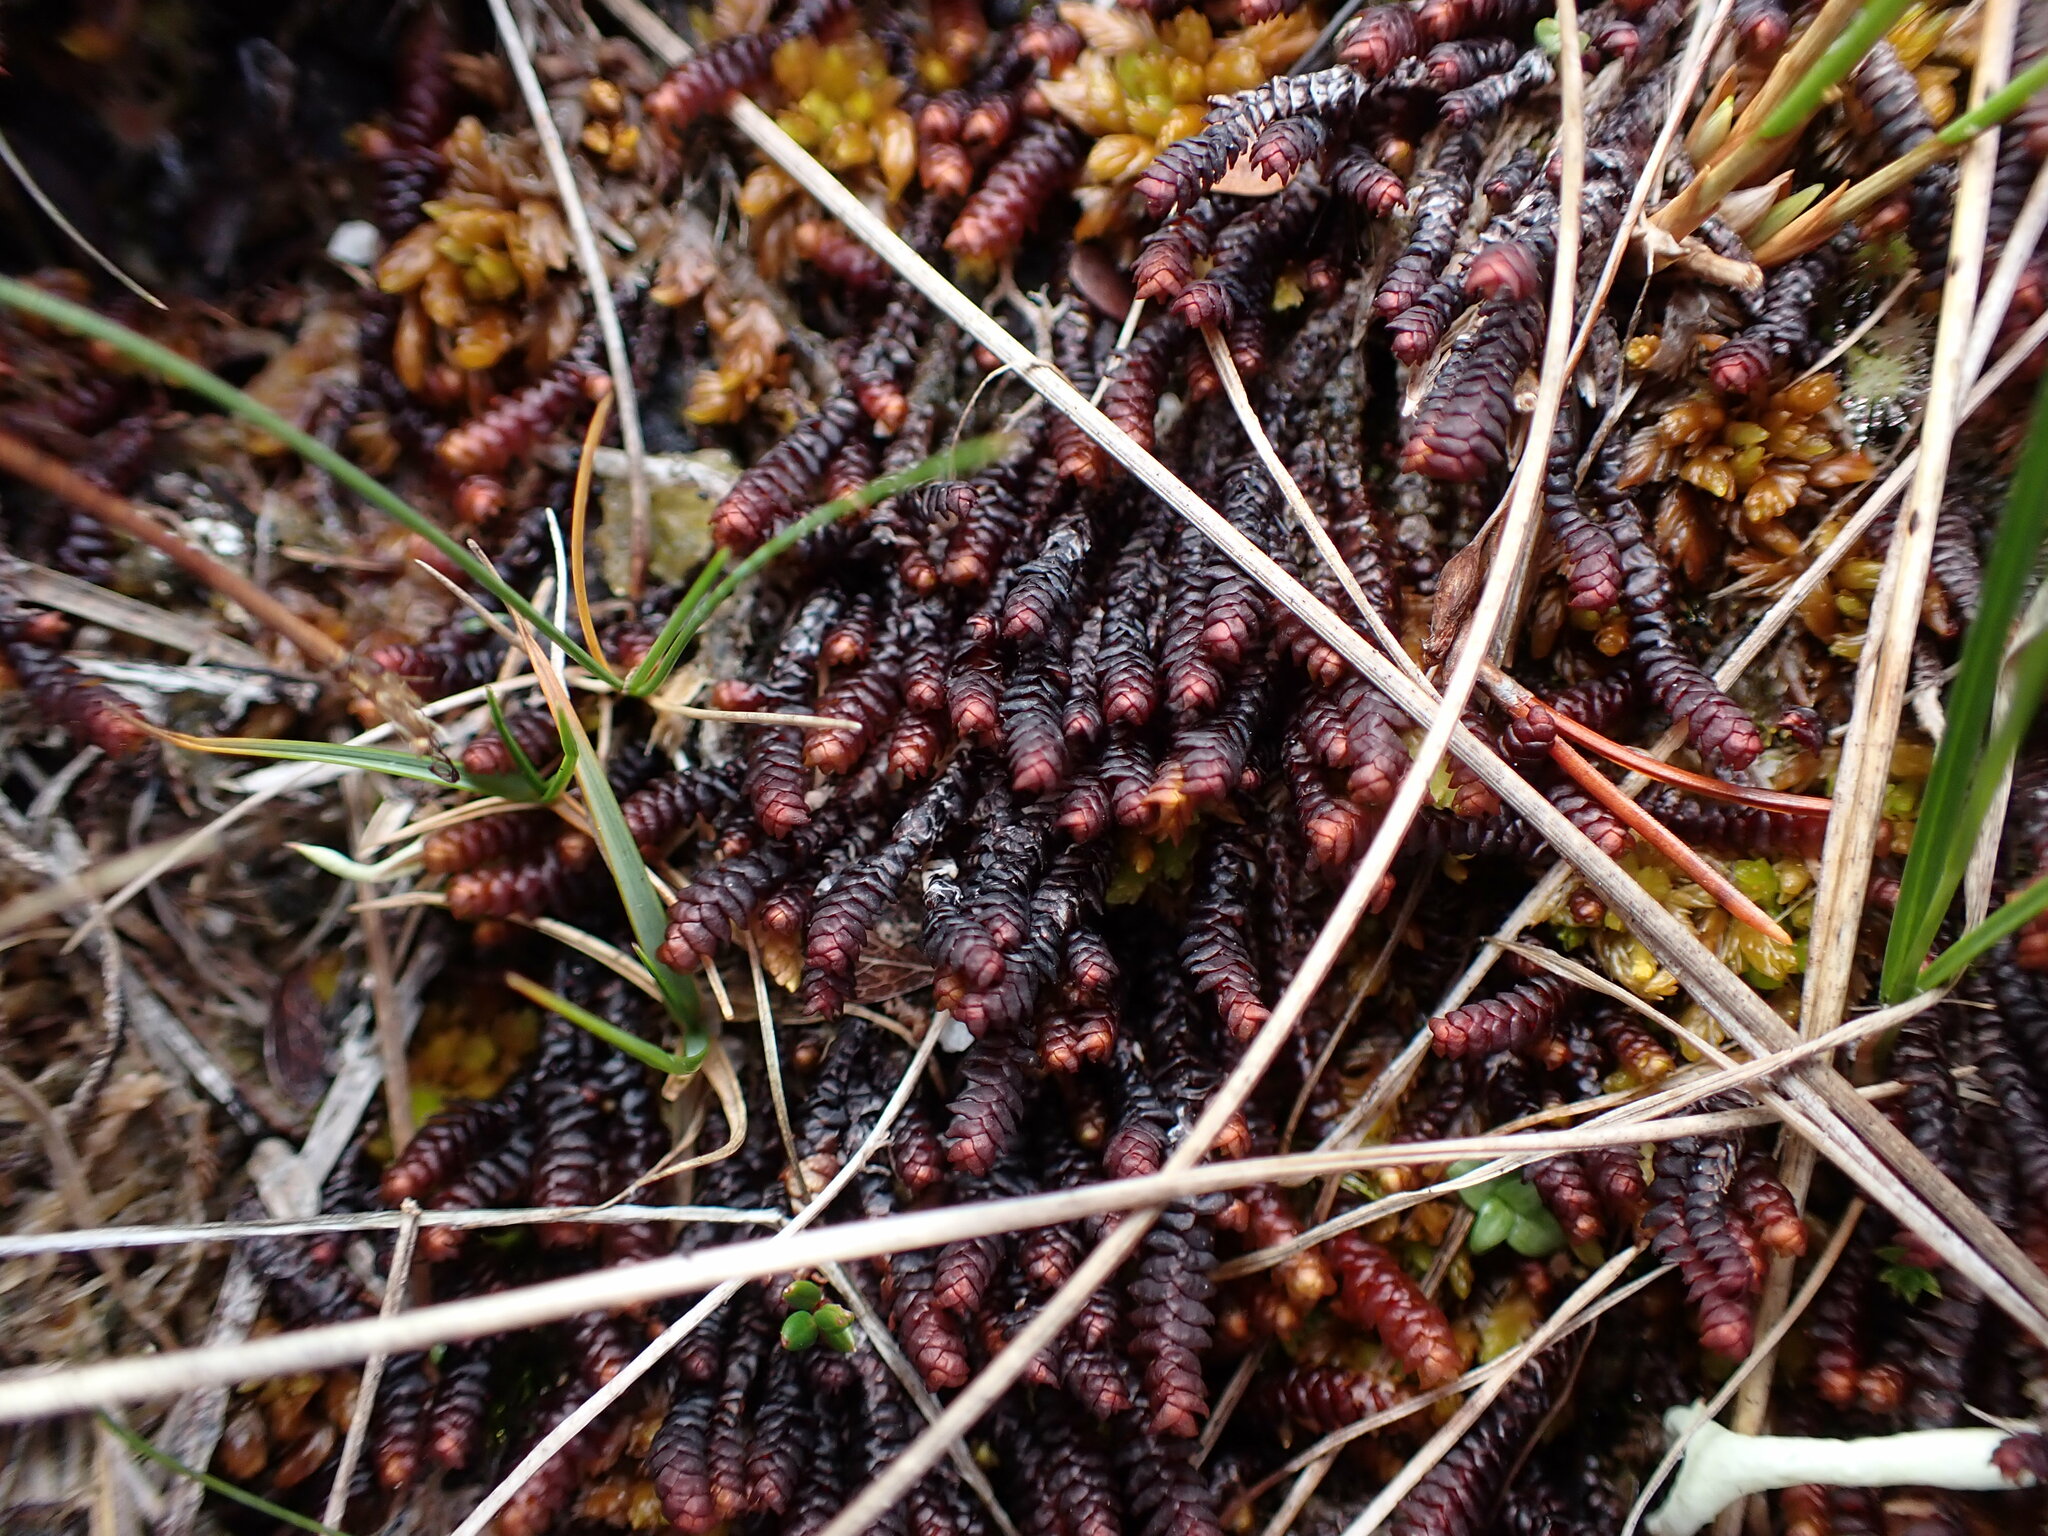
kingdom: Plantae
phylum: Marchantiophyta
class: Jungermanniopsida
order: Pleuroziales
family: Pleuroziaceae
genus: Pleurozia
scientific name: Pleurozia purpurea
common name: Purple spoonwort
